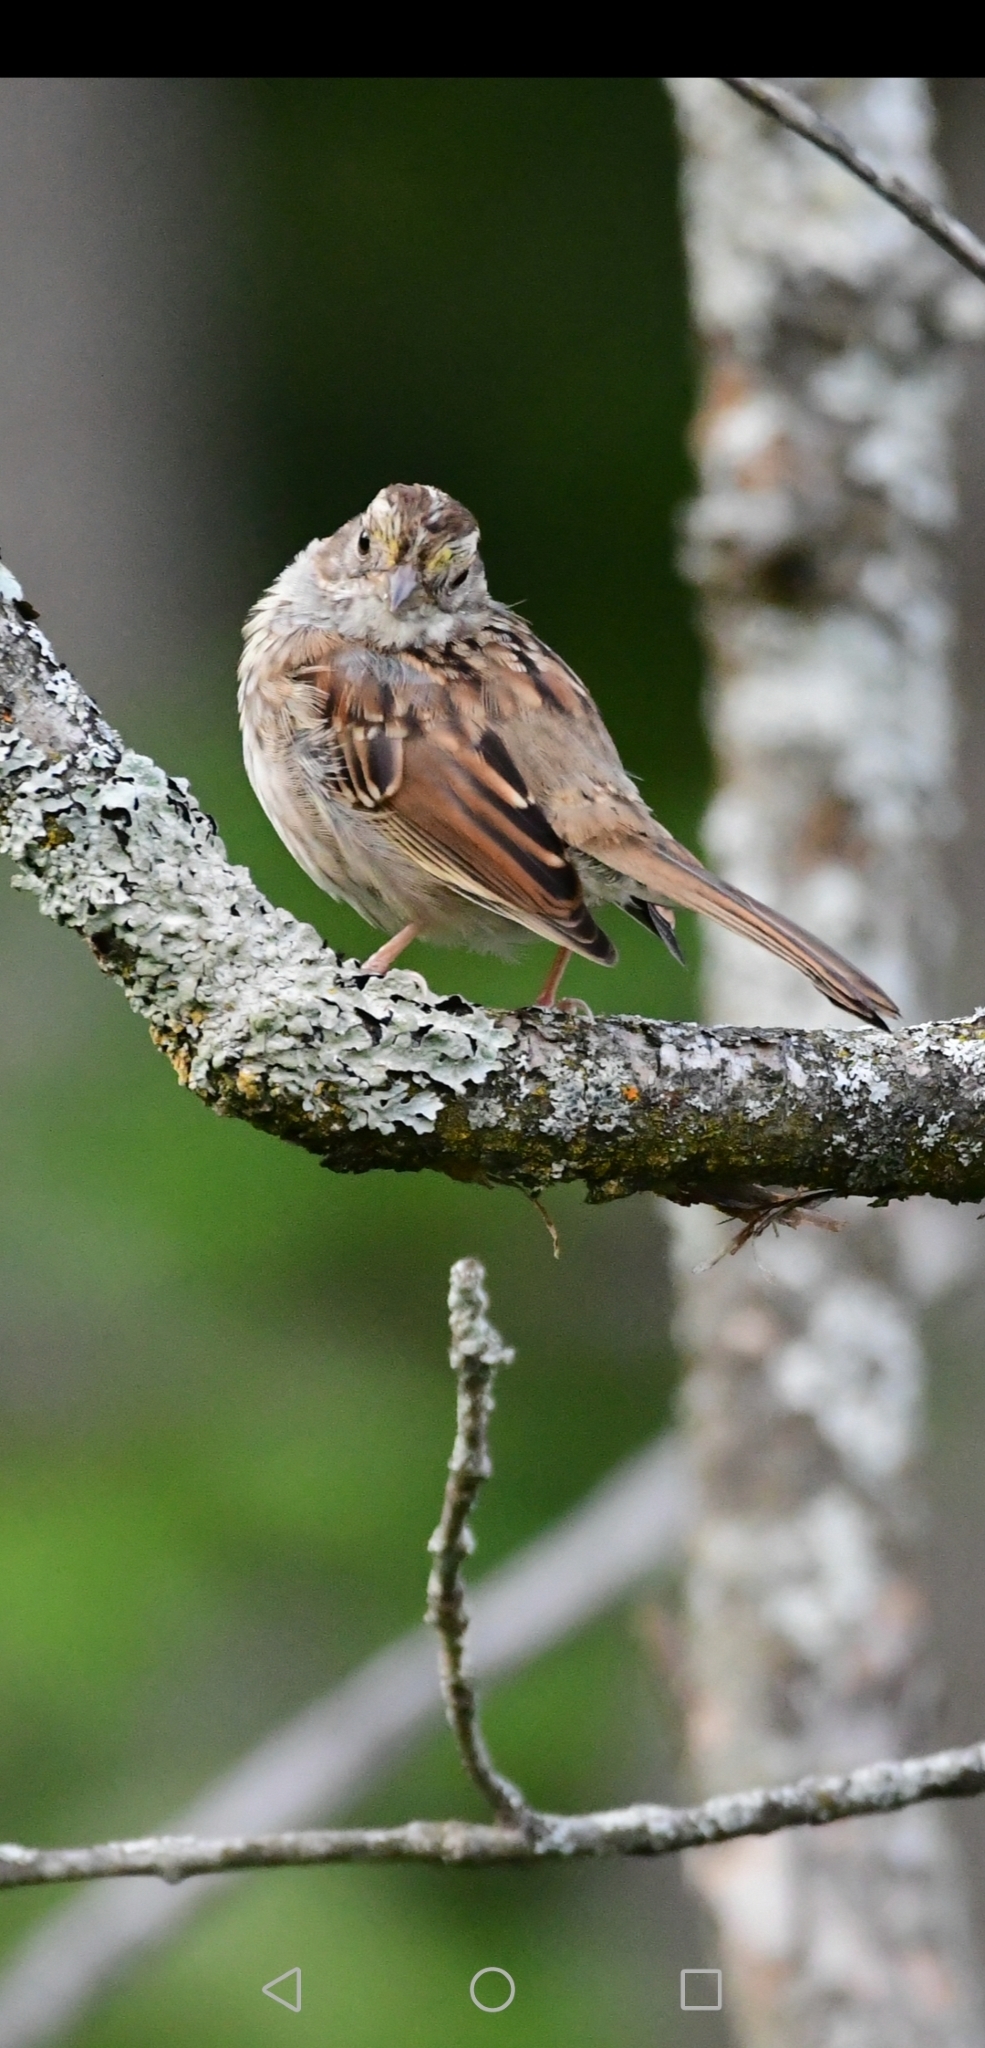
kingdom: Animalia
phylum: Chordata
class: Aves
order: Passeriformes
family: Passerellidae
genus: Zonotrichia
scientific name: Zonotrichia albicollis
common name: White-throated sparrow
